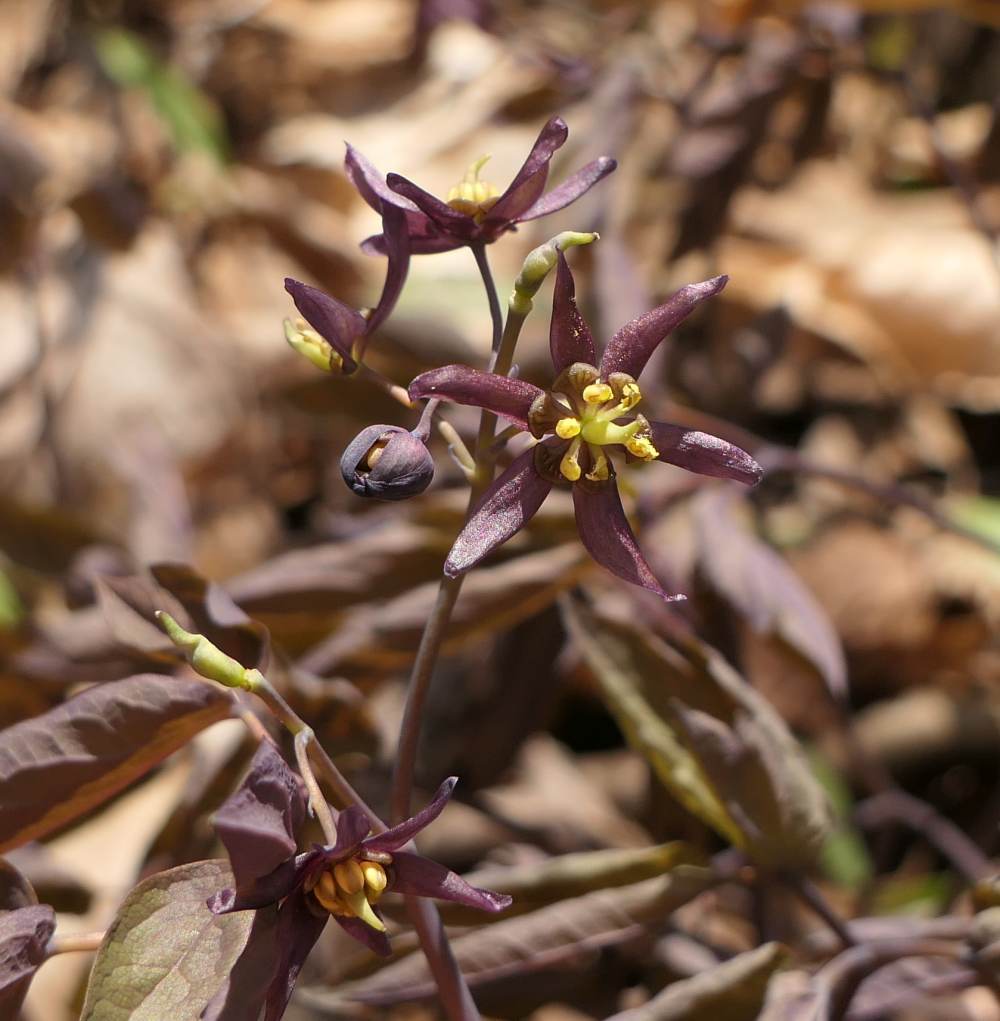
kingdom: Plantae
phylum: Tracheophyta
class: Magnoliopsida
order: Ranunculales
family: Berberidaceae
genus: Caulophyllum
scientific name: Caulophyllum giganteum
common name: Blue cohosh
